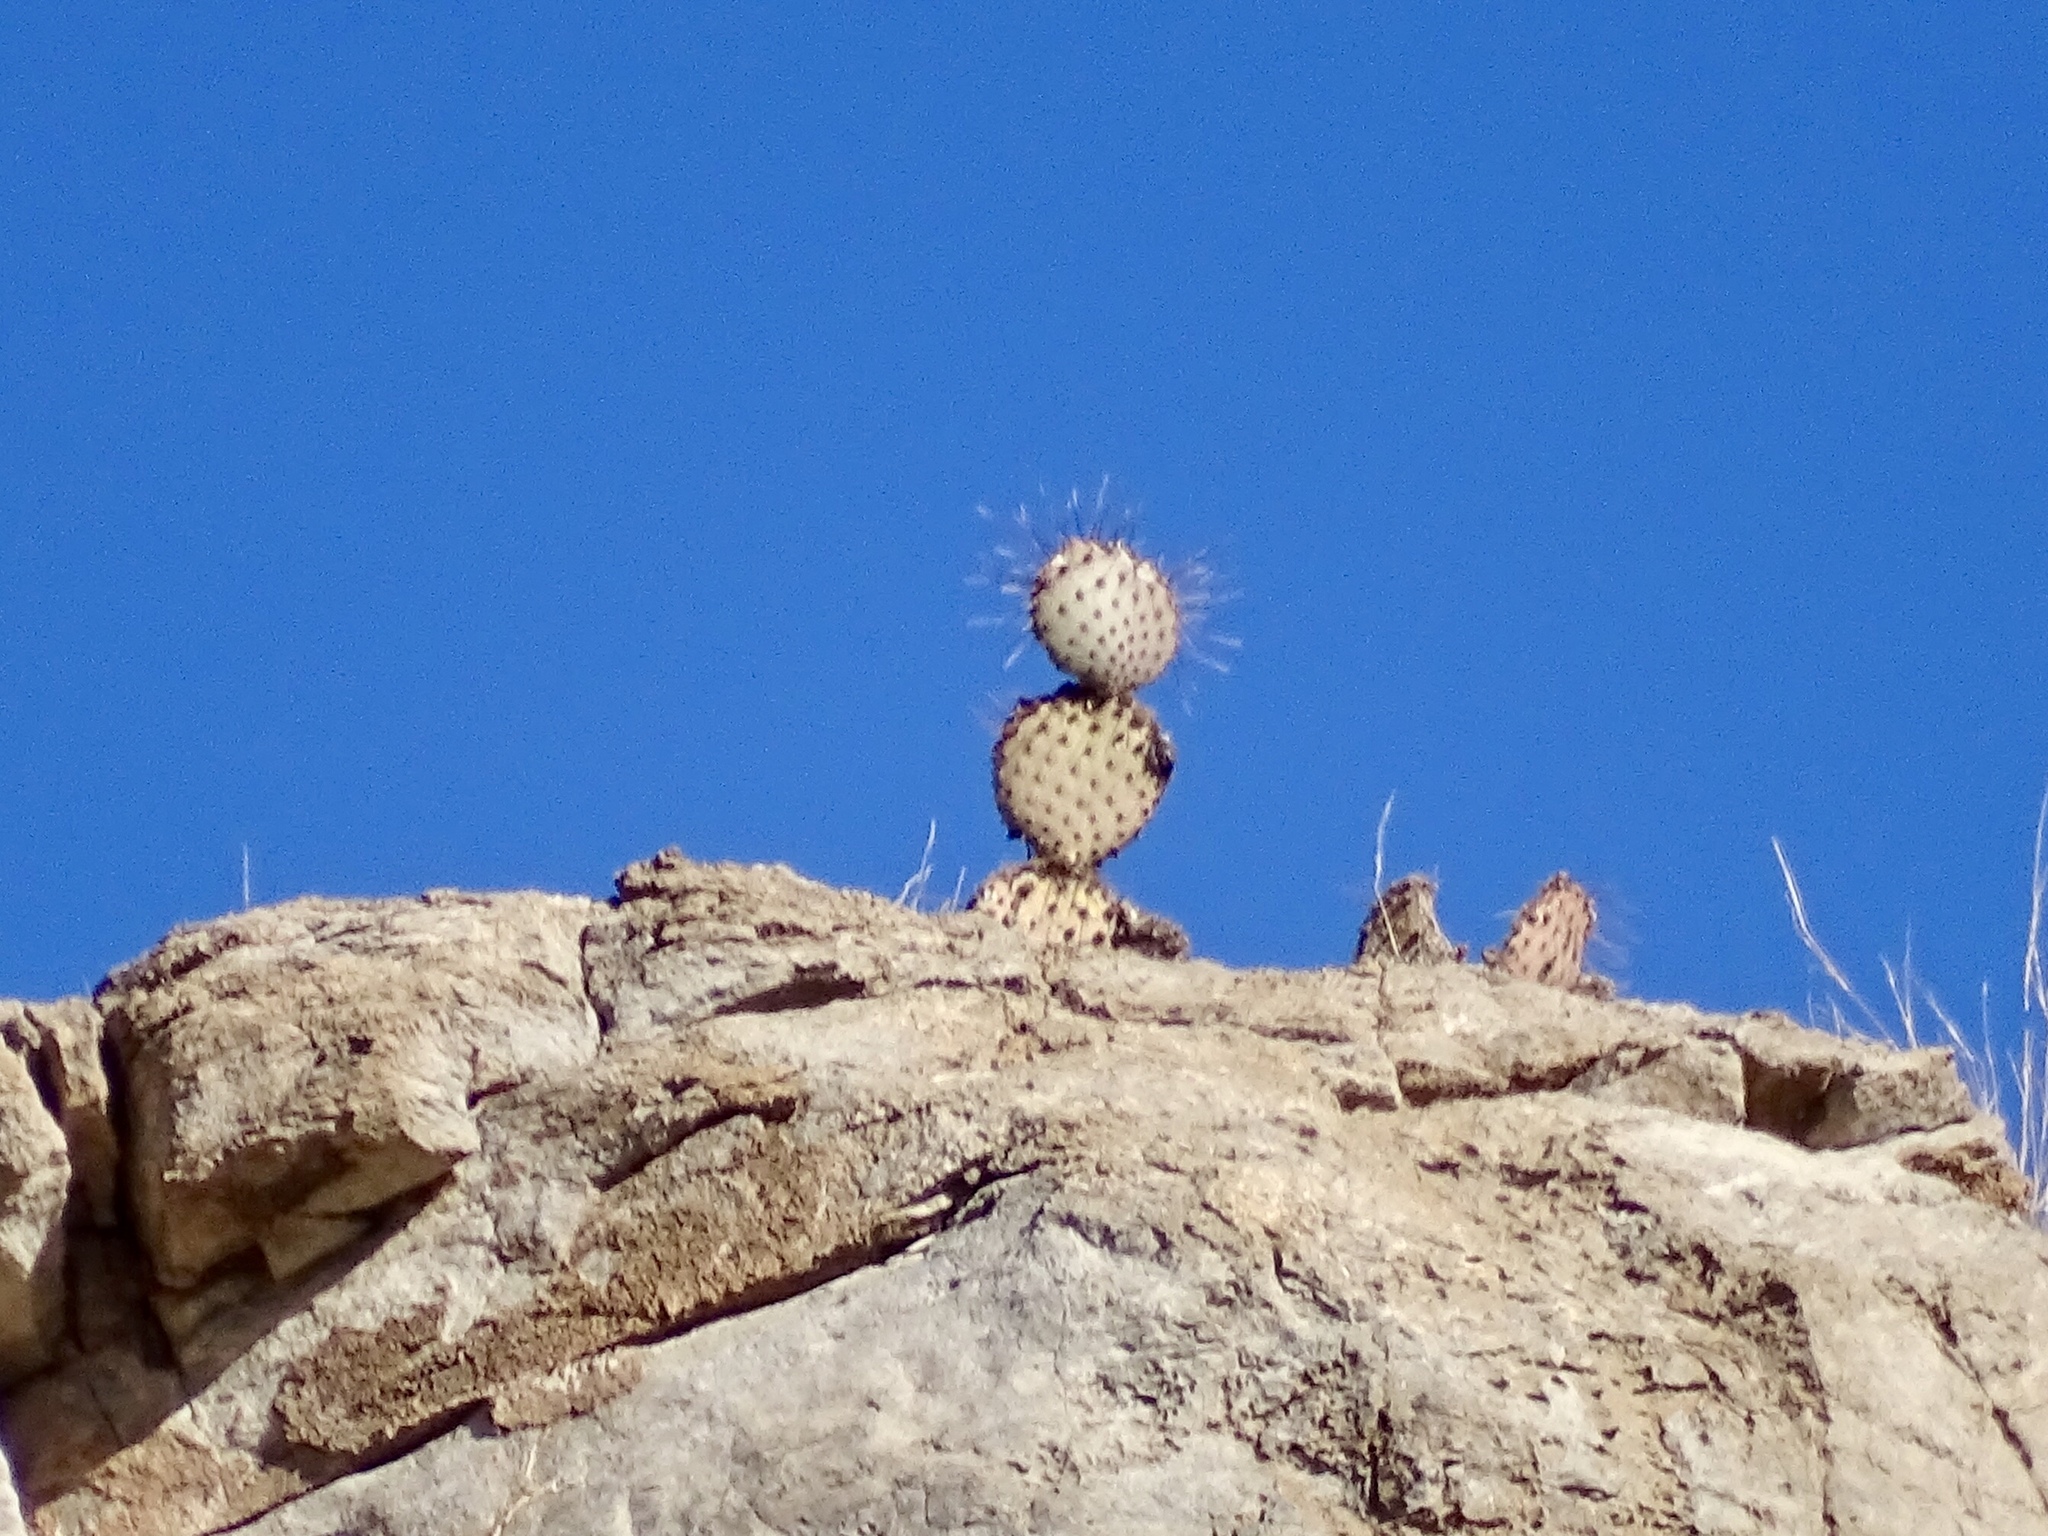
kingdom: Plantae
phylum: Tracheophyta
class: Magnoliopsida
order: Caryophyllales
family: Cactaceae
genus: Opuntia
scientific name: Opuntia macrocentra
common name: Purple prickly-pear
